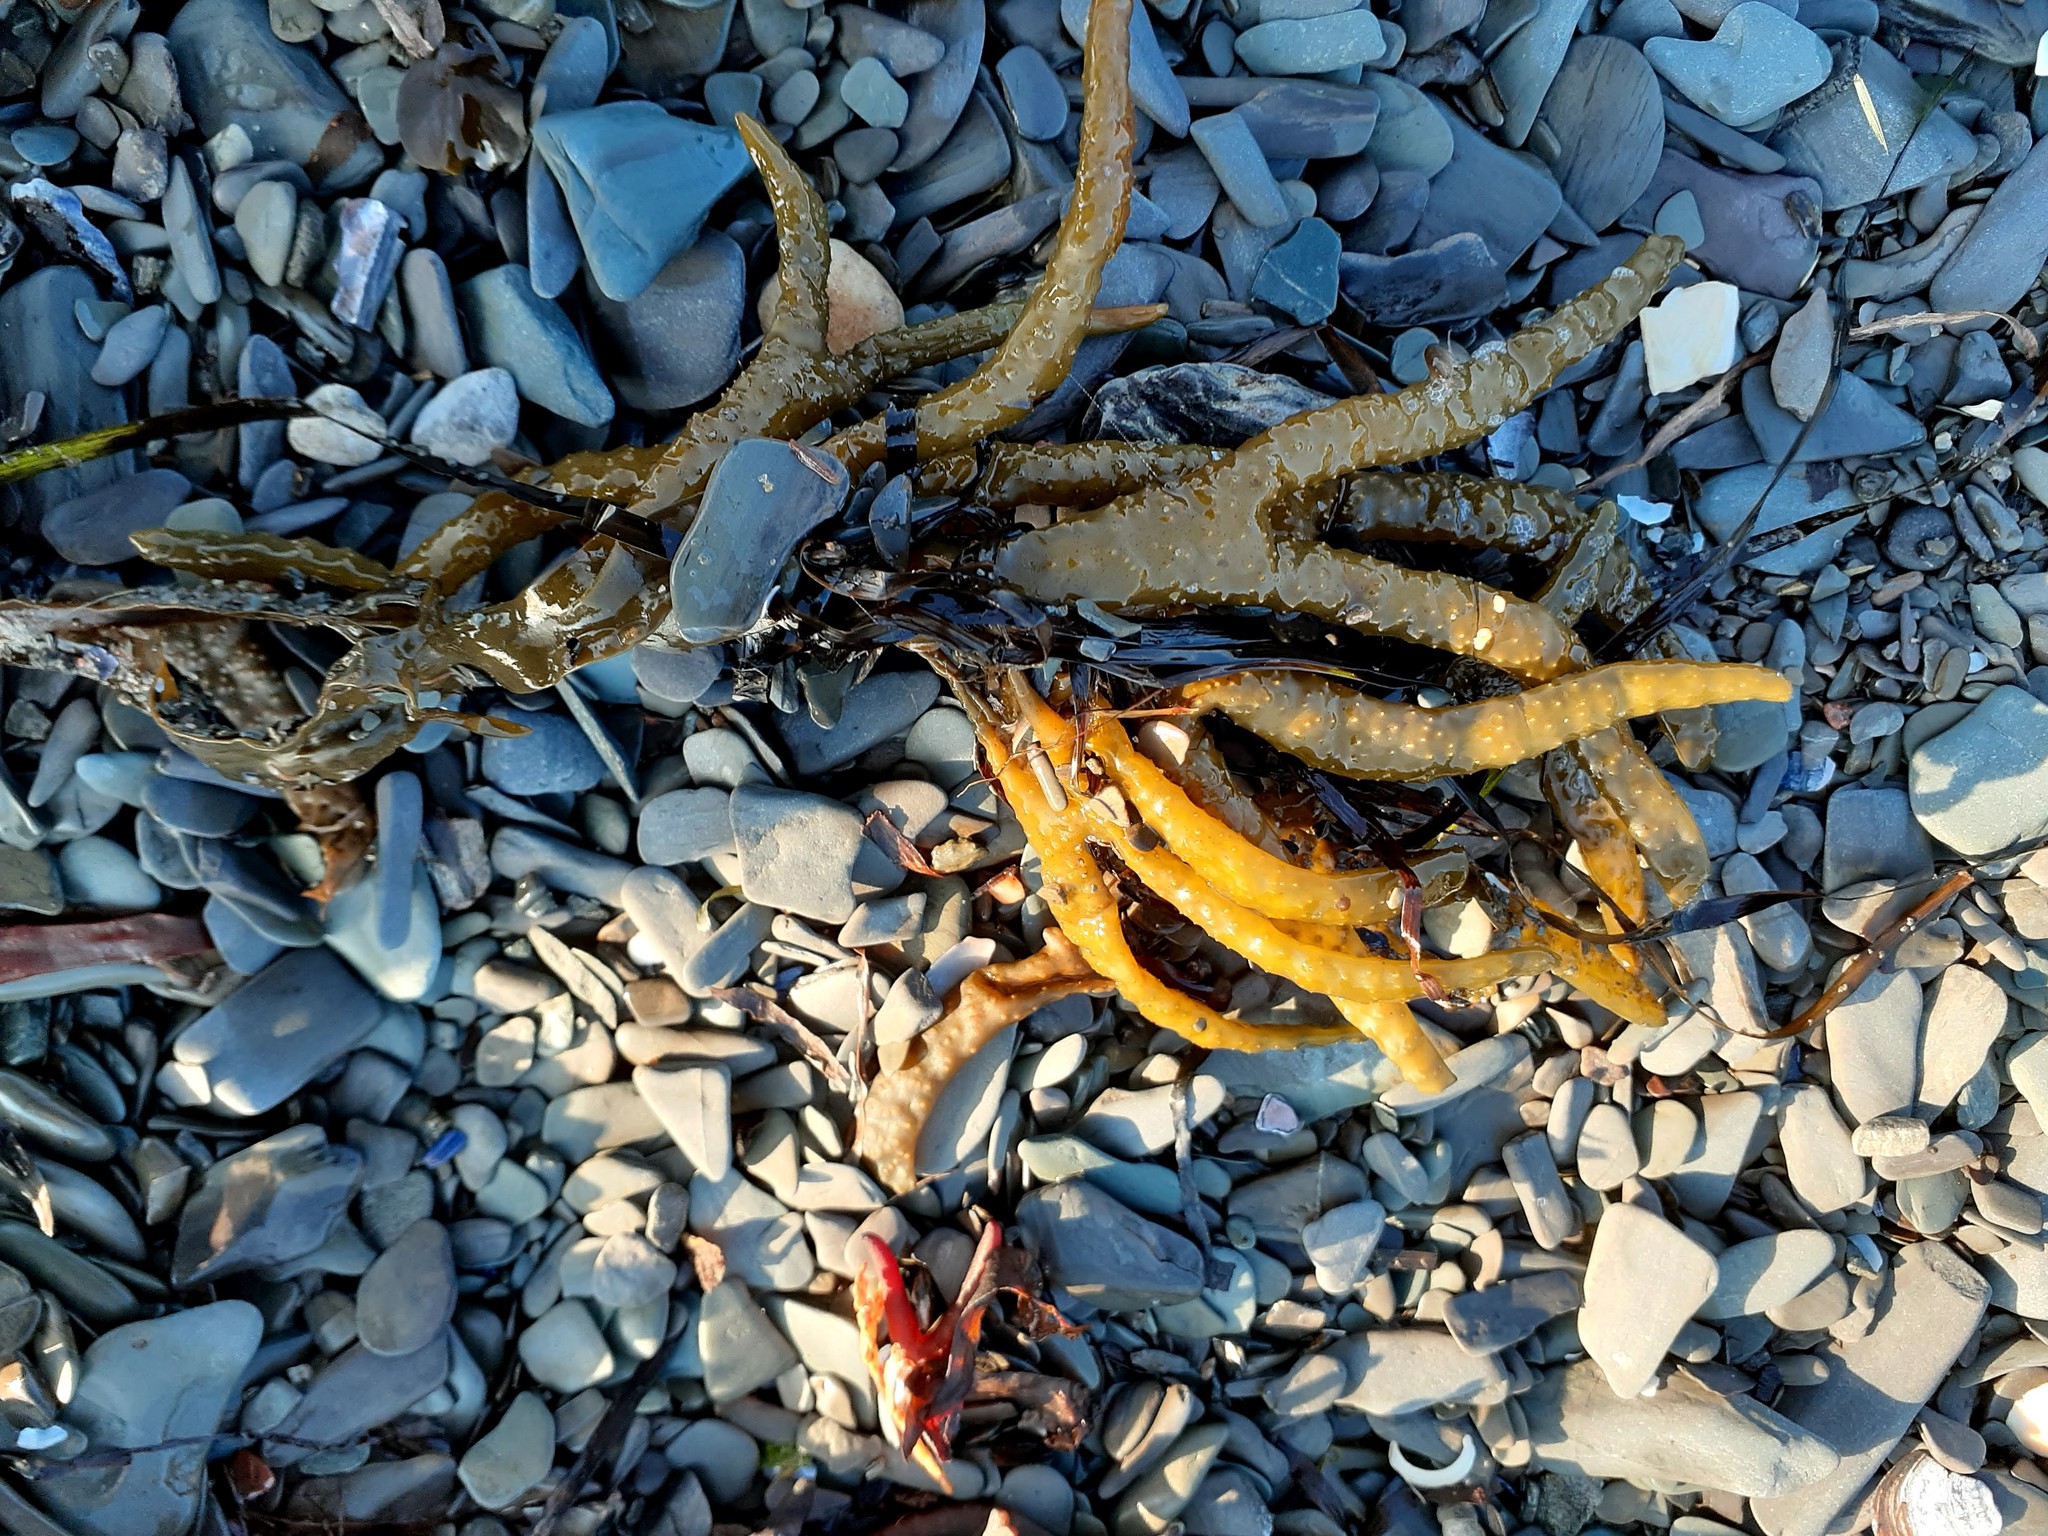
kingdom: Chromista
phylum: Ochrophyta
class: Phaeophyceae
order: Fucales
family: Fucaceae
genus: Fucus
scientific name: Fucus evanescens
